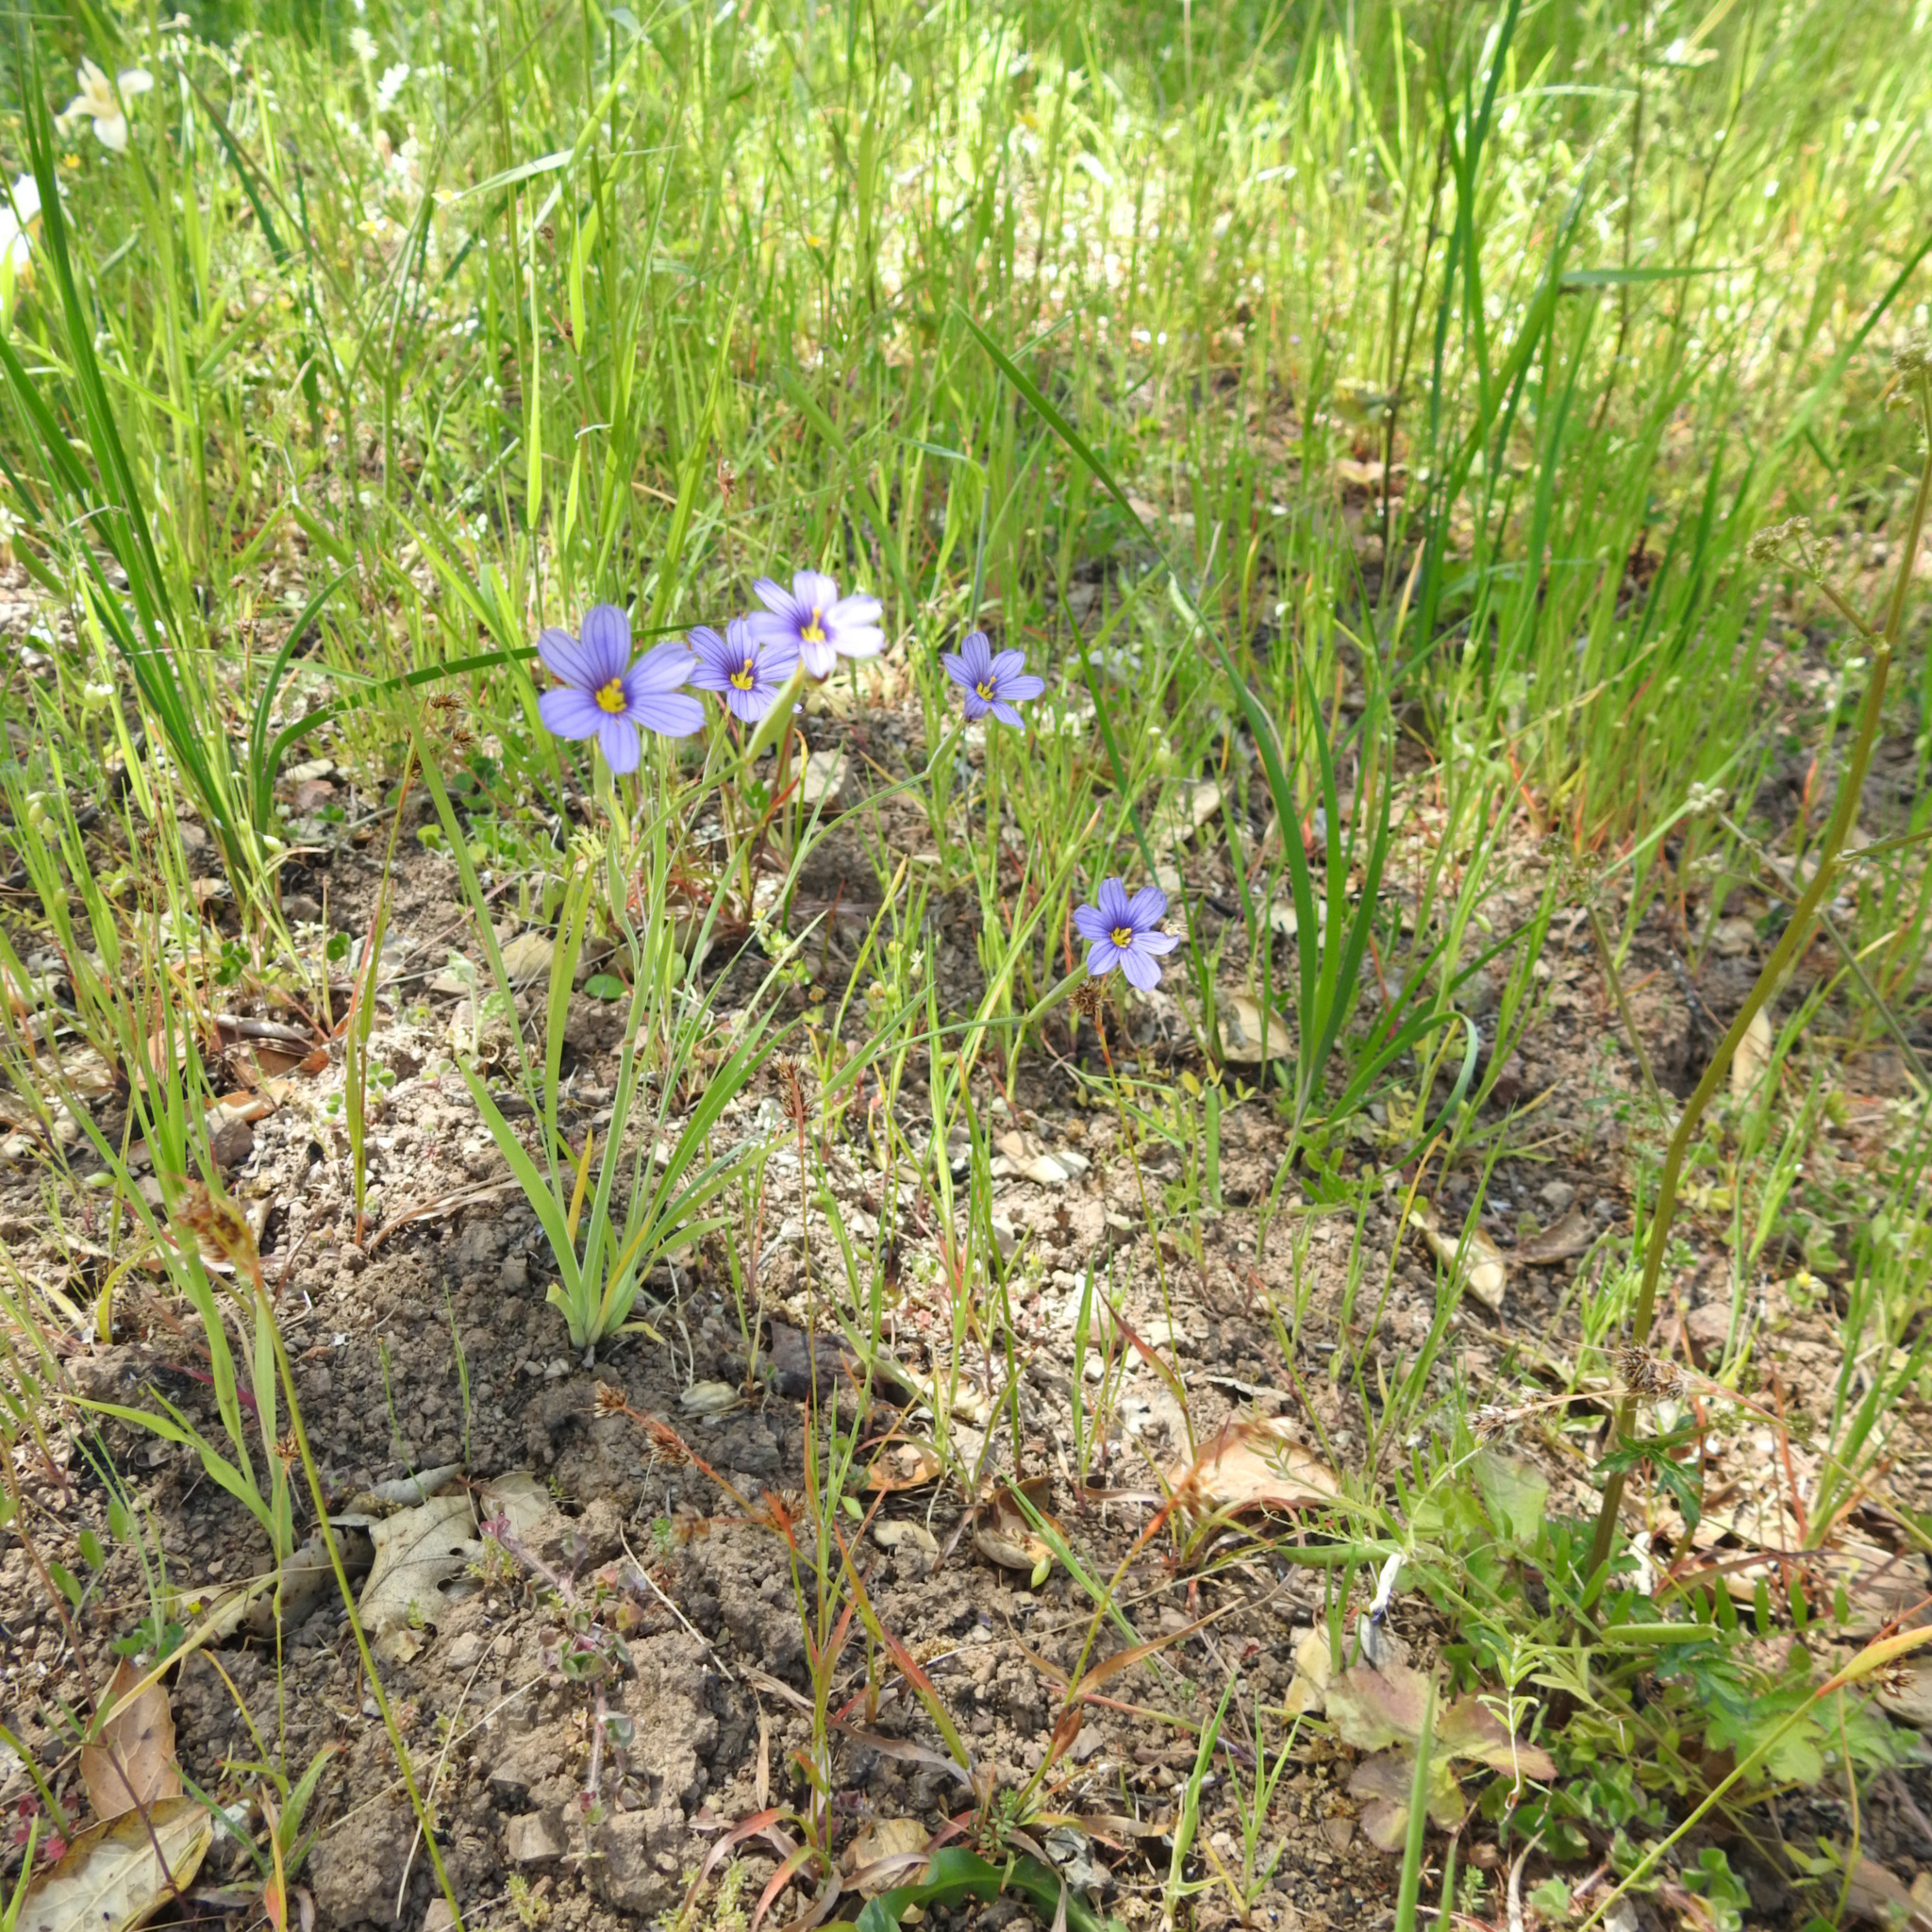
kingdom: Plantae
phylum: Tracheophyta
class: Liliopsida
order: Asparagales
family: Iridaceae
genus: Sisyrinchium
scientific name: Sisyrinchium bellum
